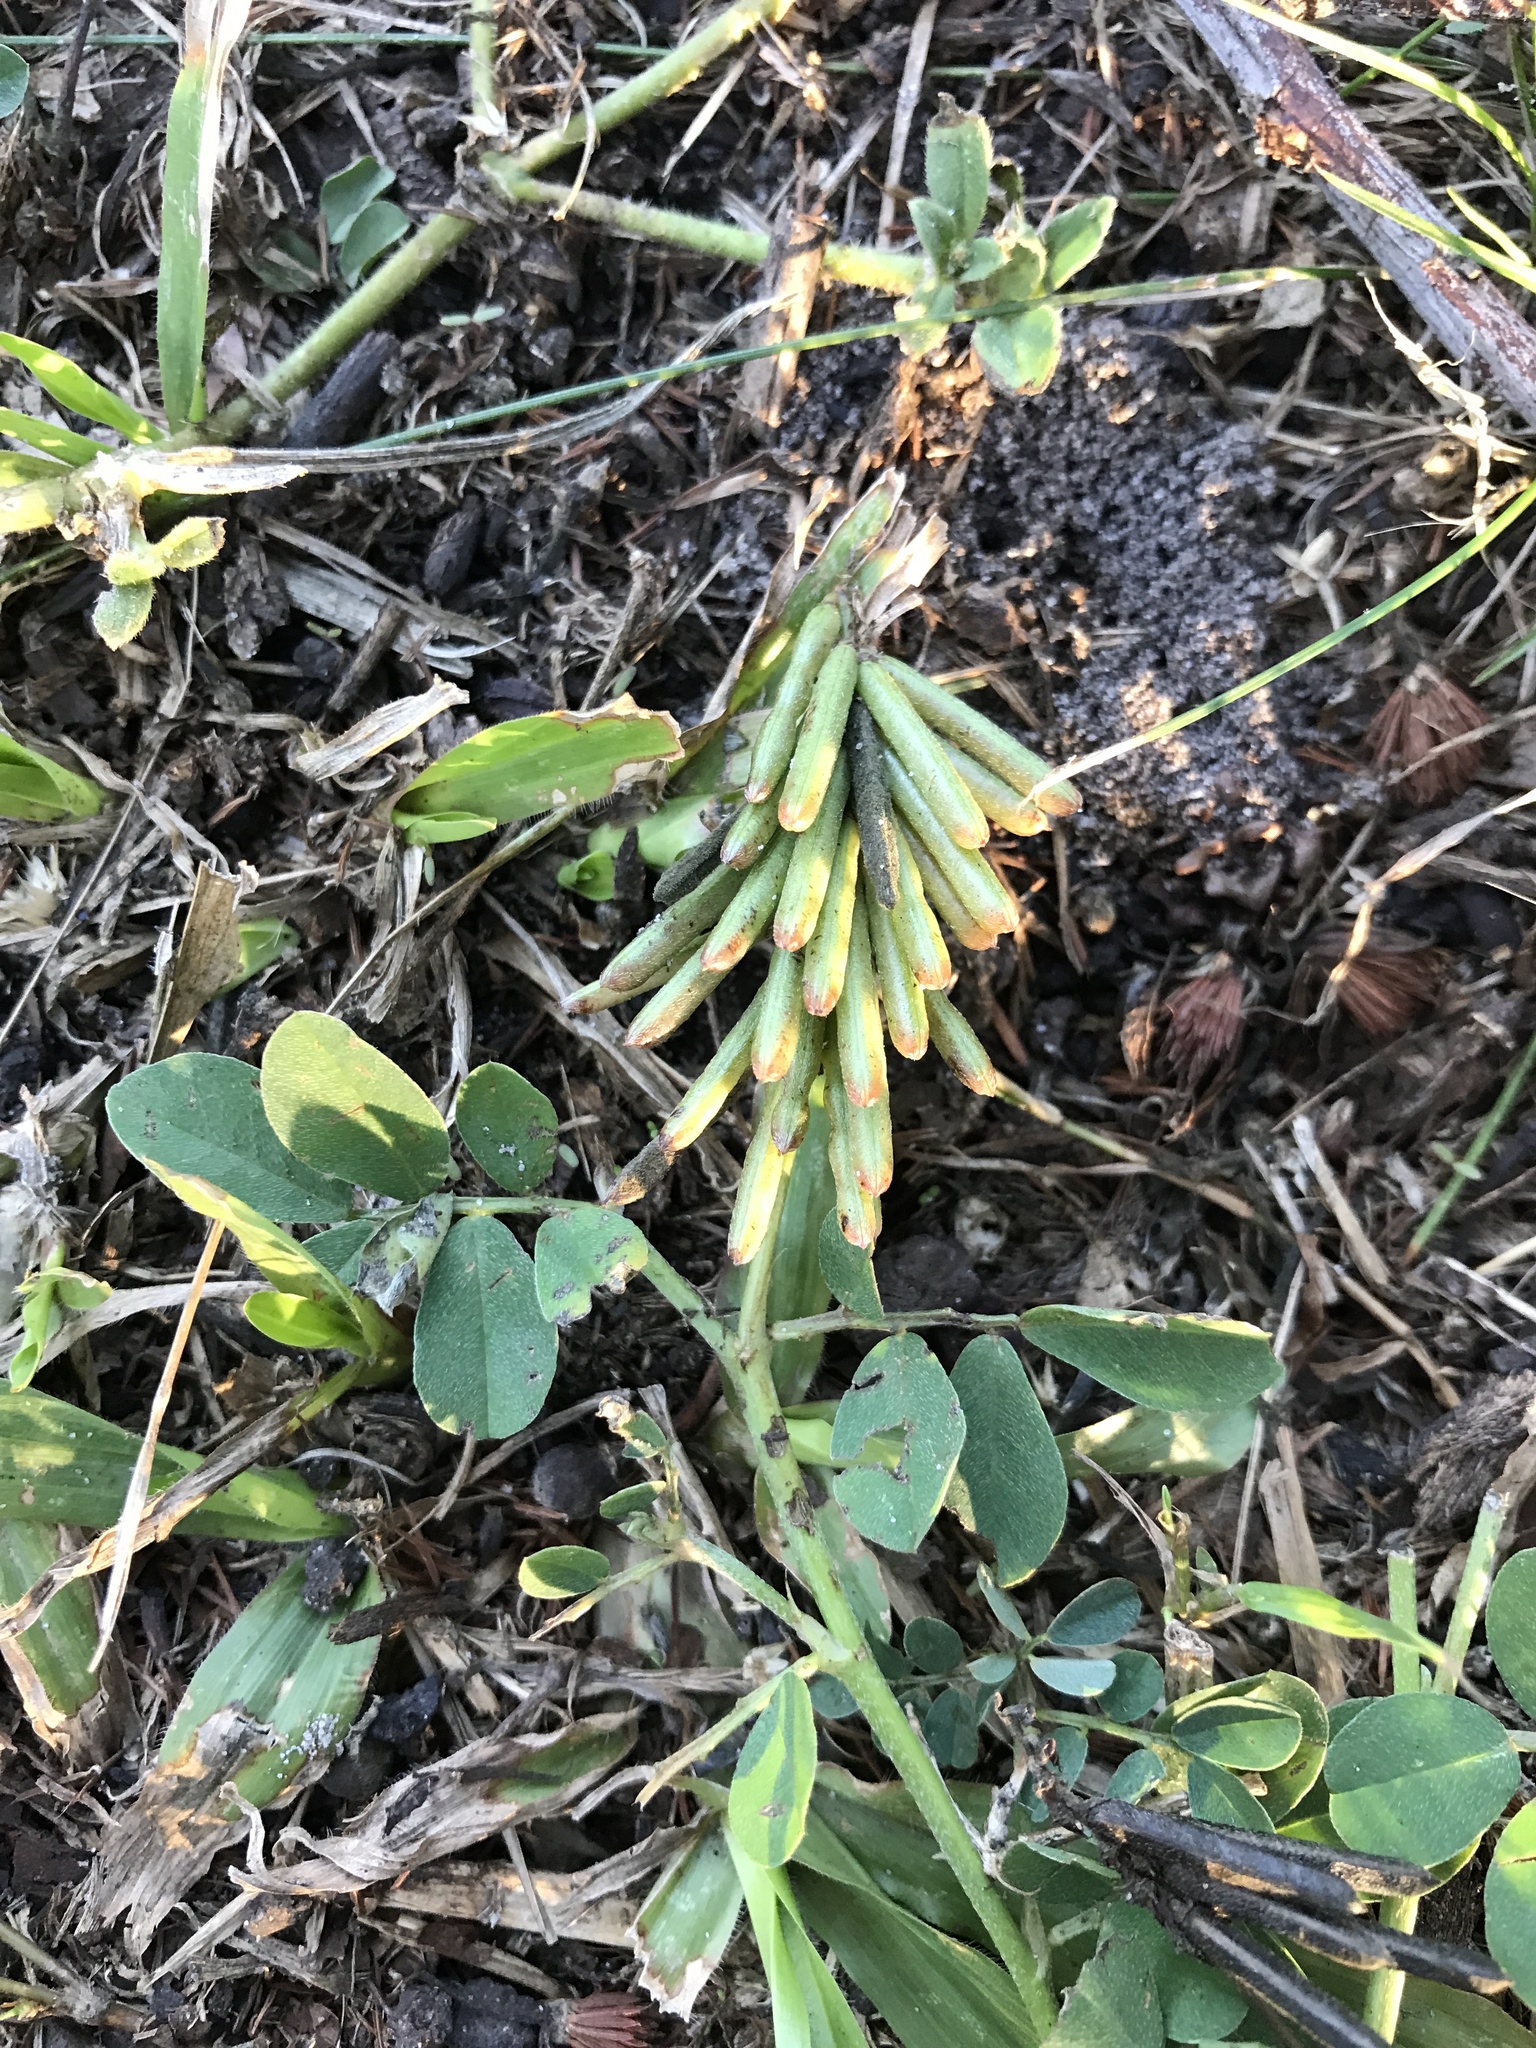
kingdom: Plantae
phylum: Tracheophyta
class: Magnoliopsida
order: Fabales
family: Fabaceae
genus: Indigofera
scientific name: Indigofera spicata
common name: Creeping indigo
